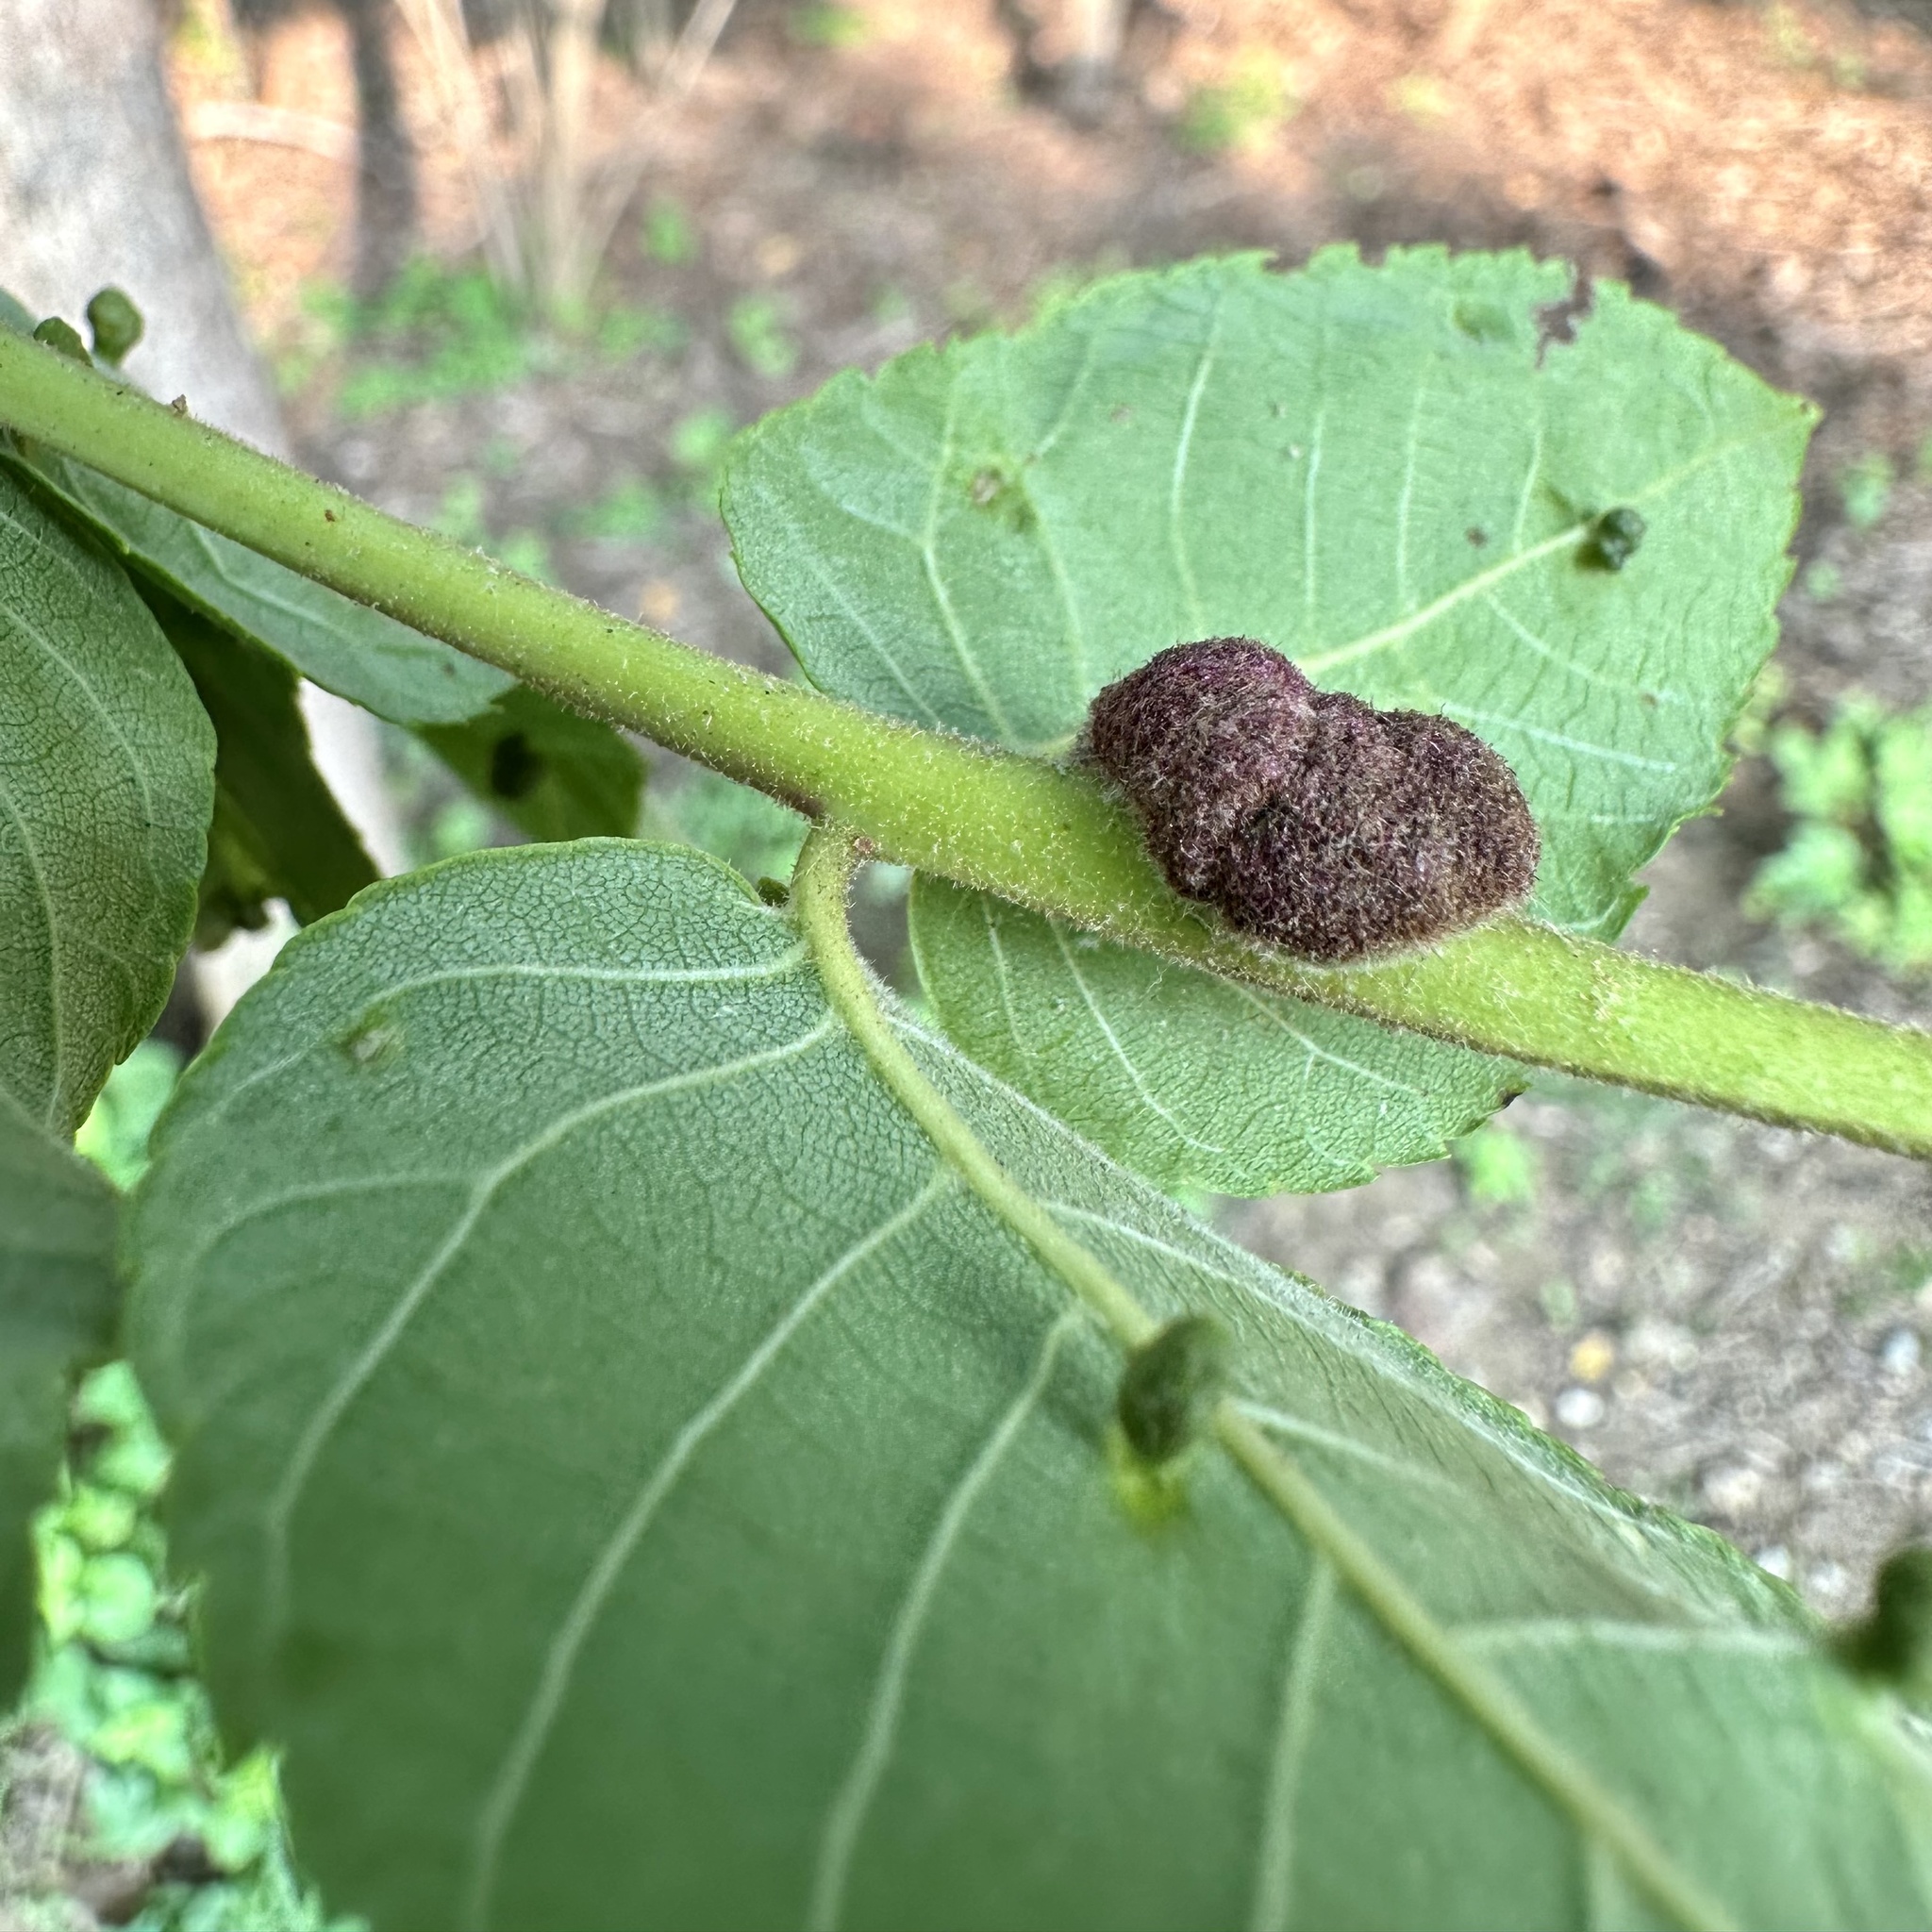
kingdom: Animalia
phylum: Arthropoda
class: Arachnida
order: Trombidiformes
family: Eriophyidae
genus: Aceria
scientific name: Aceria
